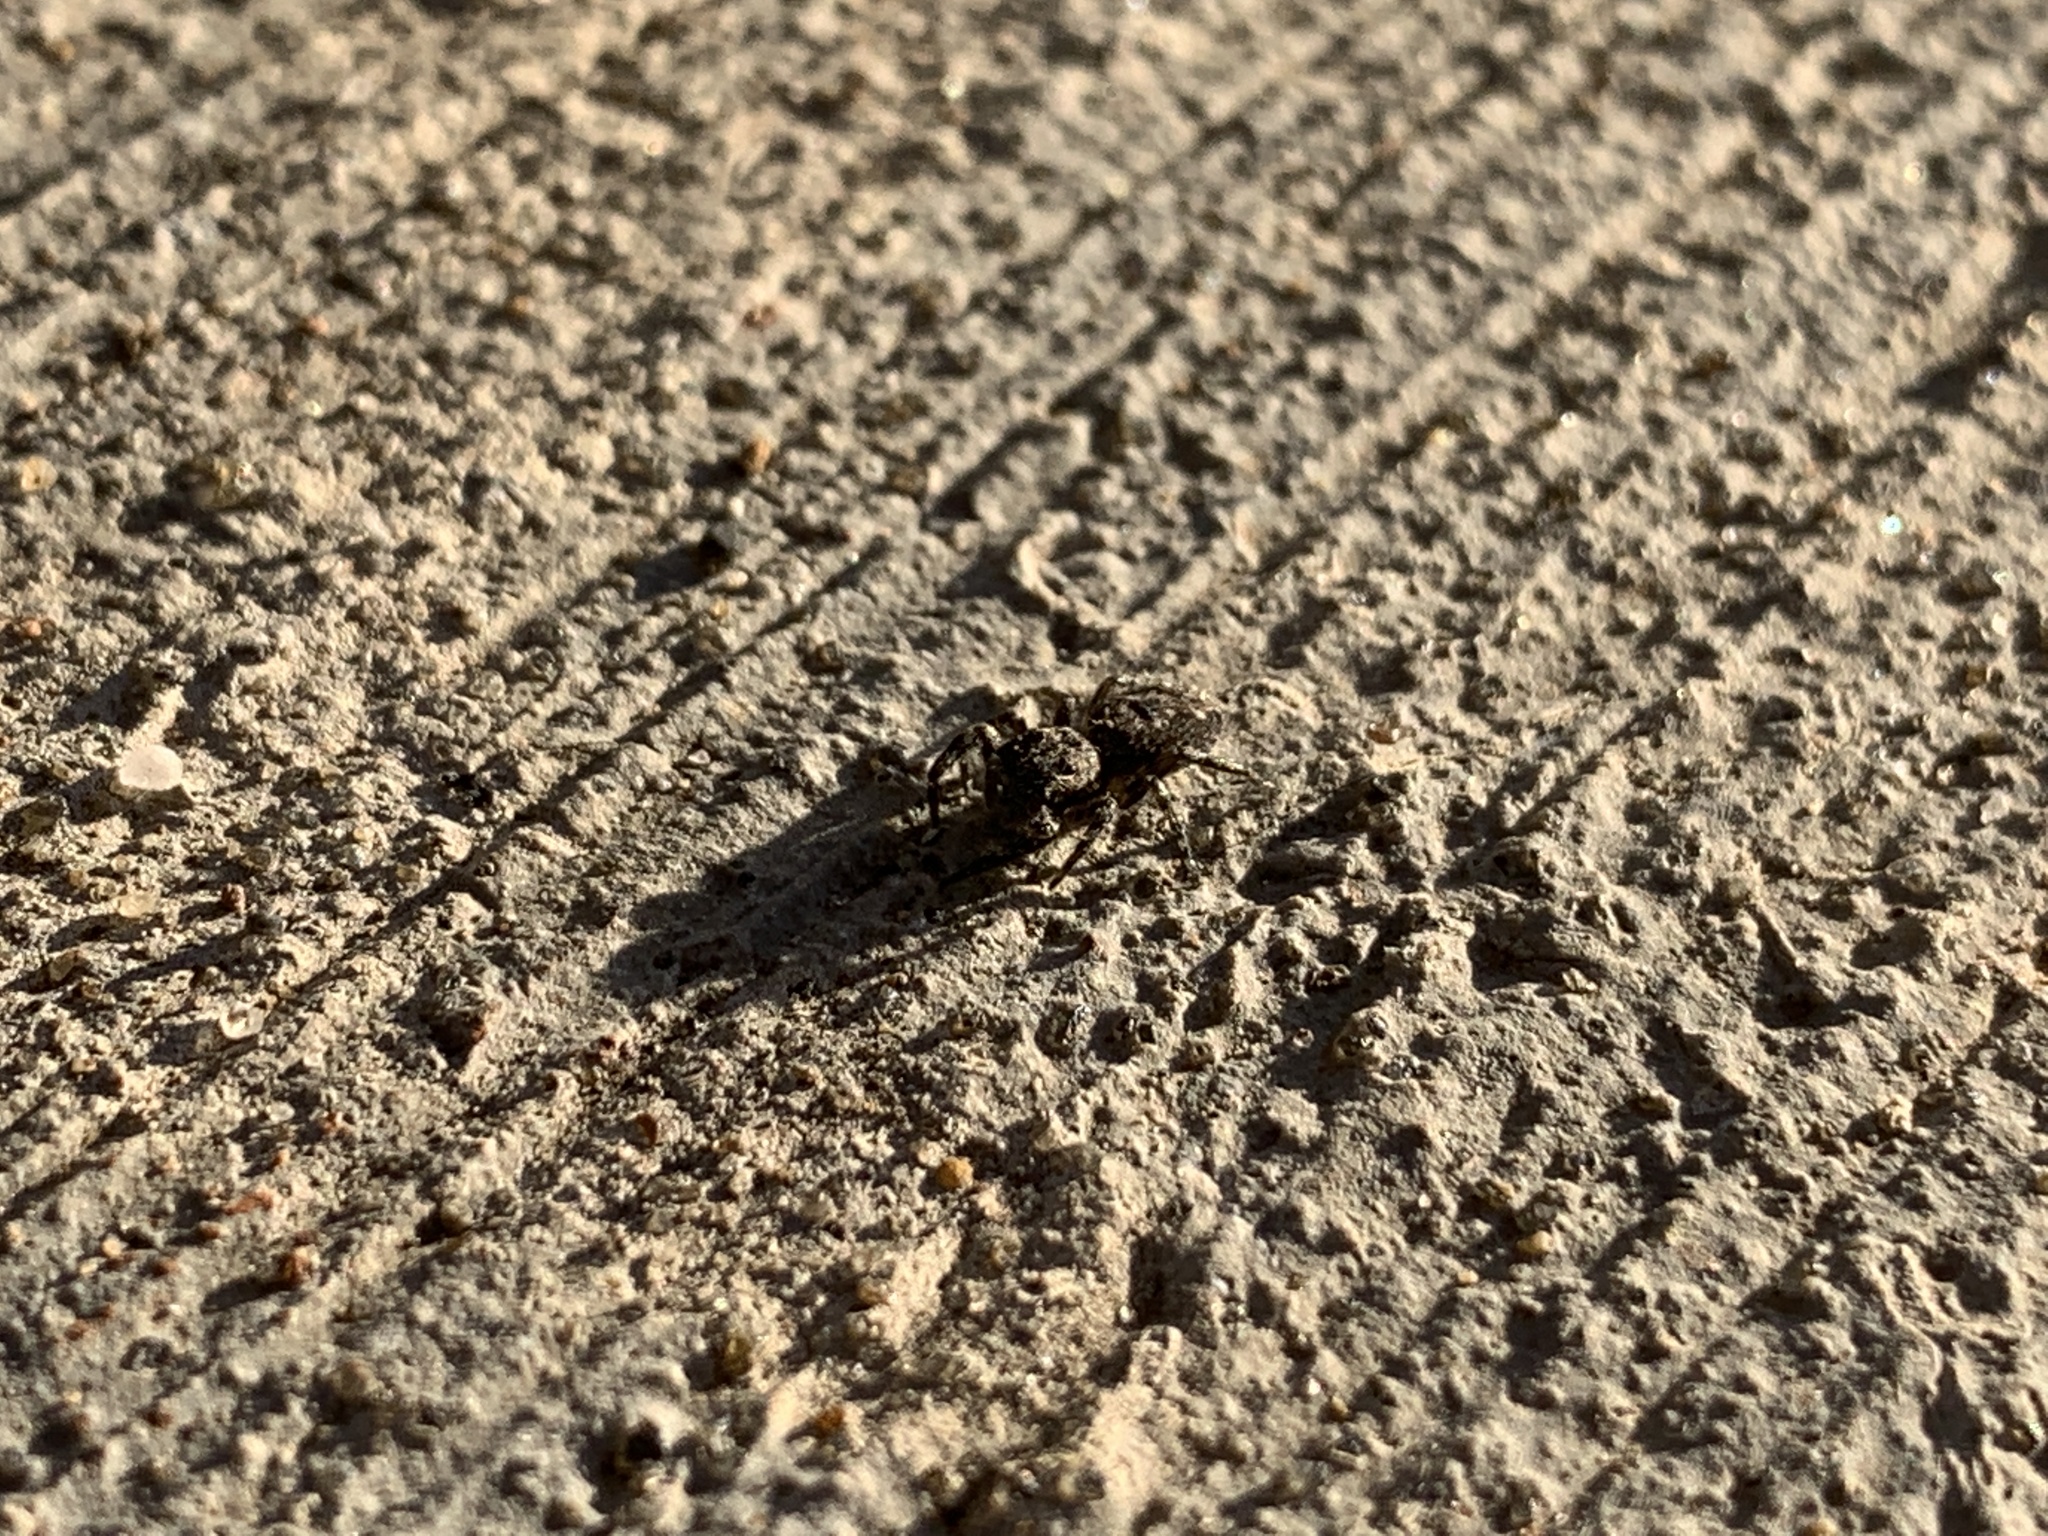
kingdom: Animalia
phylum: Arthropoda
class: Arachnida
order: Araneae
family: Salticidae
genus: Platycryptus
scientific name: Platycryptus undatus
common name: Tan jumping spider
